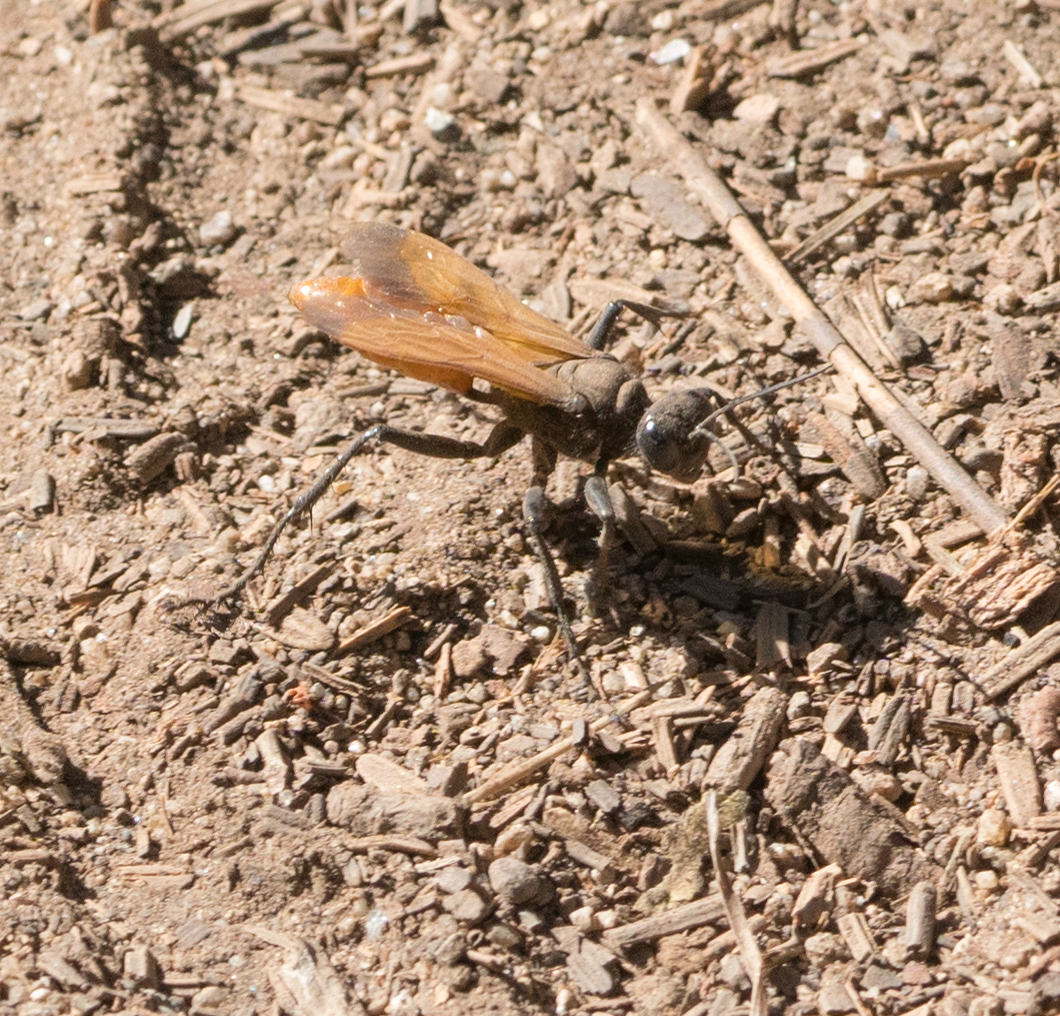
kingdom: Animalia
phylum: Arthropoda
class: Insecta
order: Hymenoptera
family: Sphecidae
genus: Sphex
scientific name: Sphex lucae
